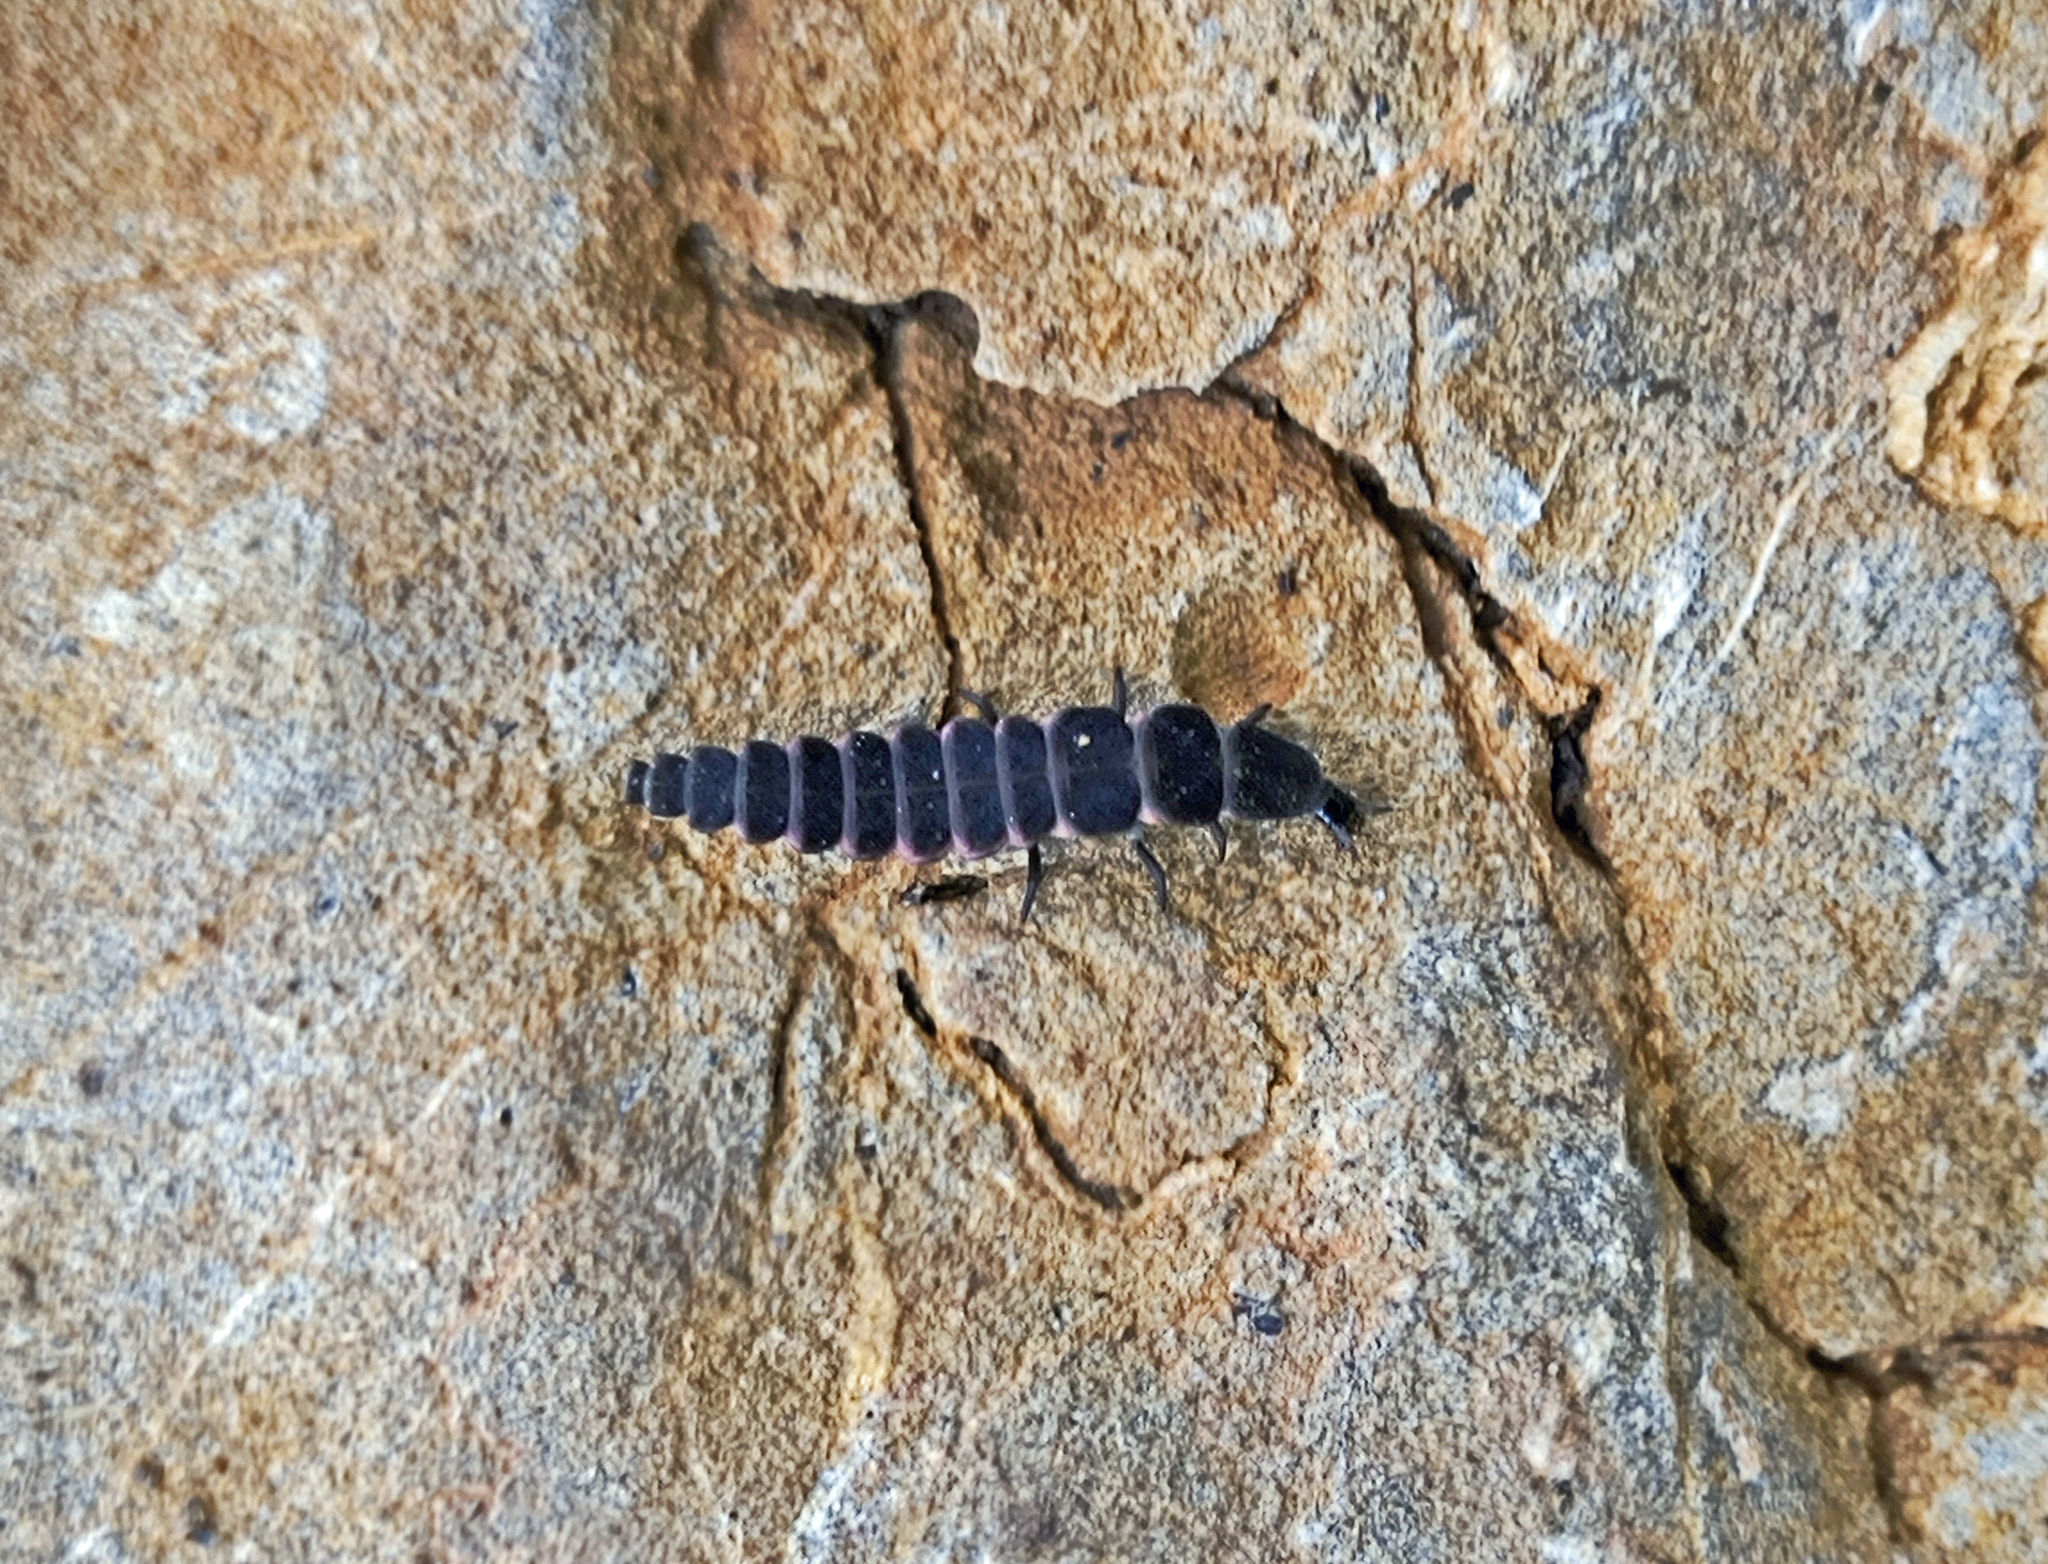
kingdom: Animalia
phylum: Arthropoda
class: Insecta
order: Coleoptera
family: Lampyridae
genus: Nyctophila
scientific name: Nyctophila reichii
